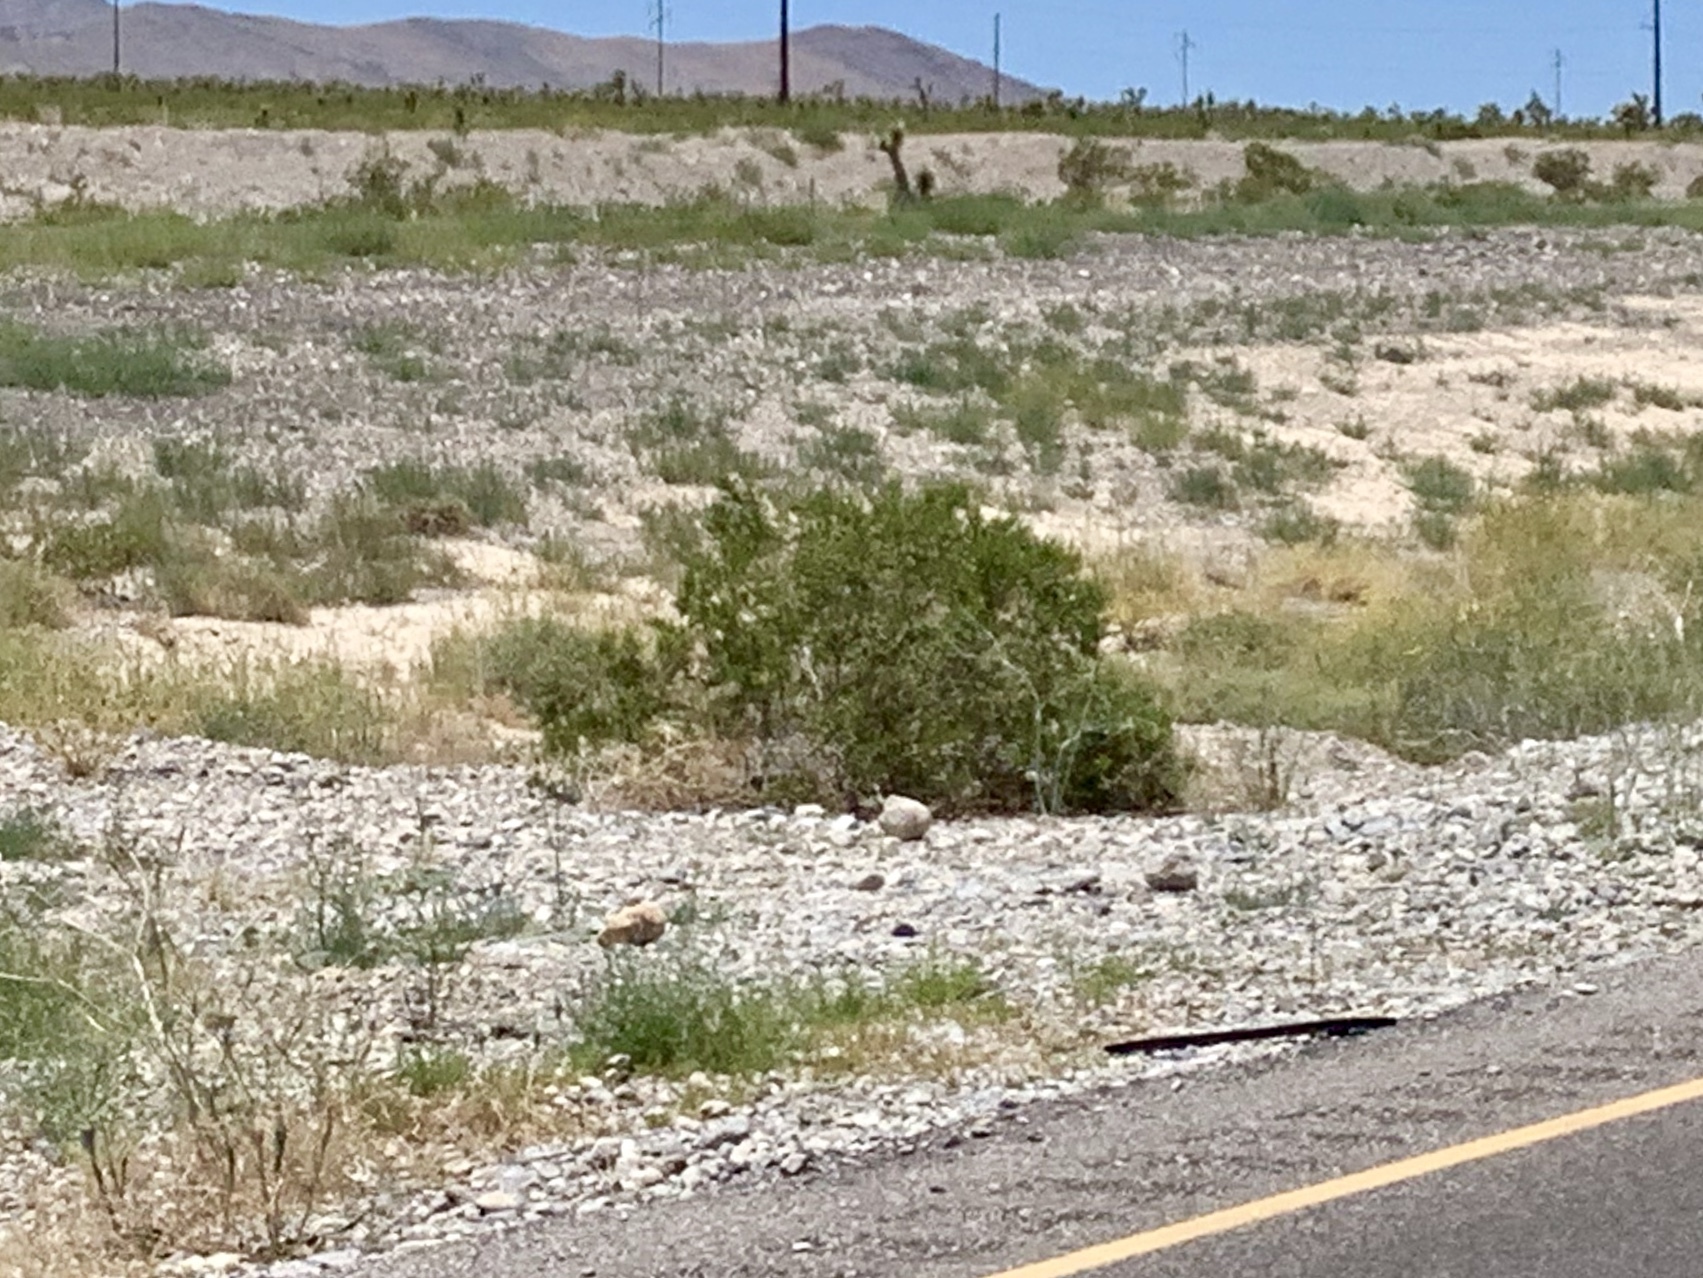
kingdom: Plantae
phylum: Tracheophyta
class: Magnoliopsida
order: Zygophyllales
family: Zygophyllaceae
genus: Larrea
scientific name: Larrea tridentata
